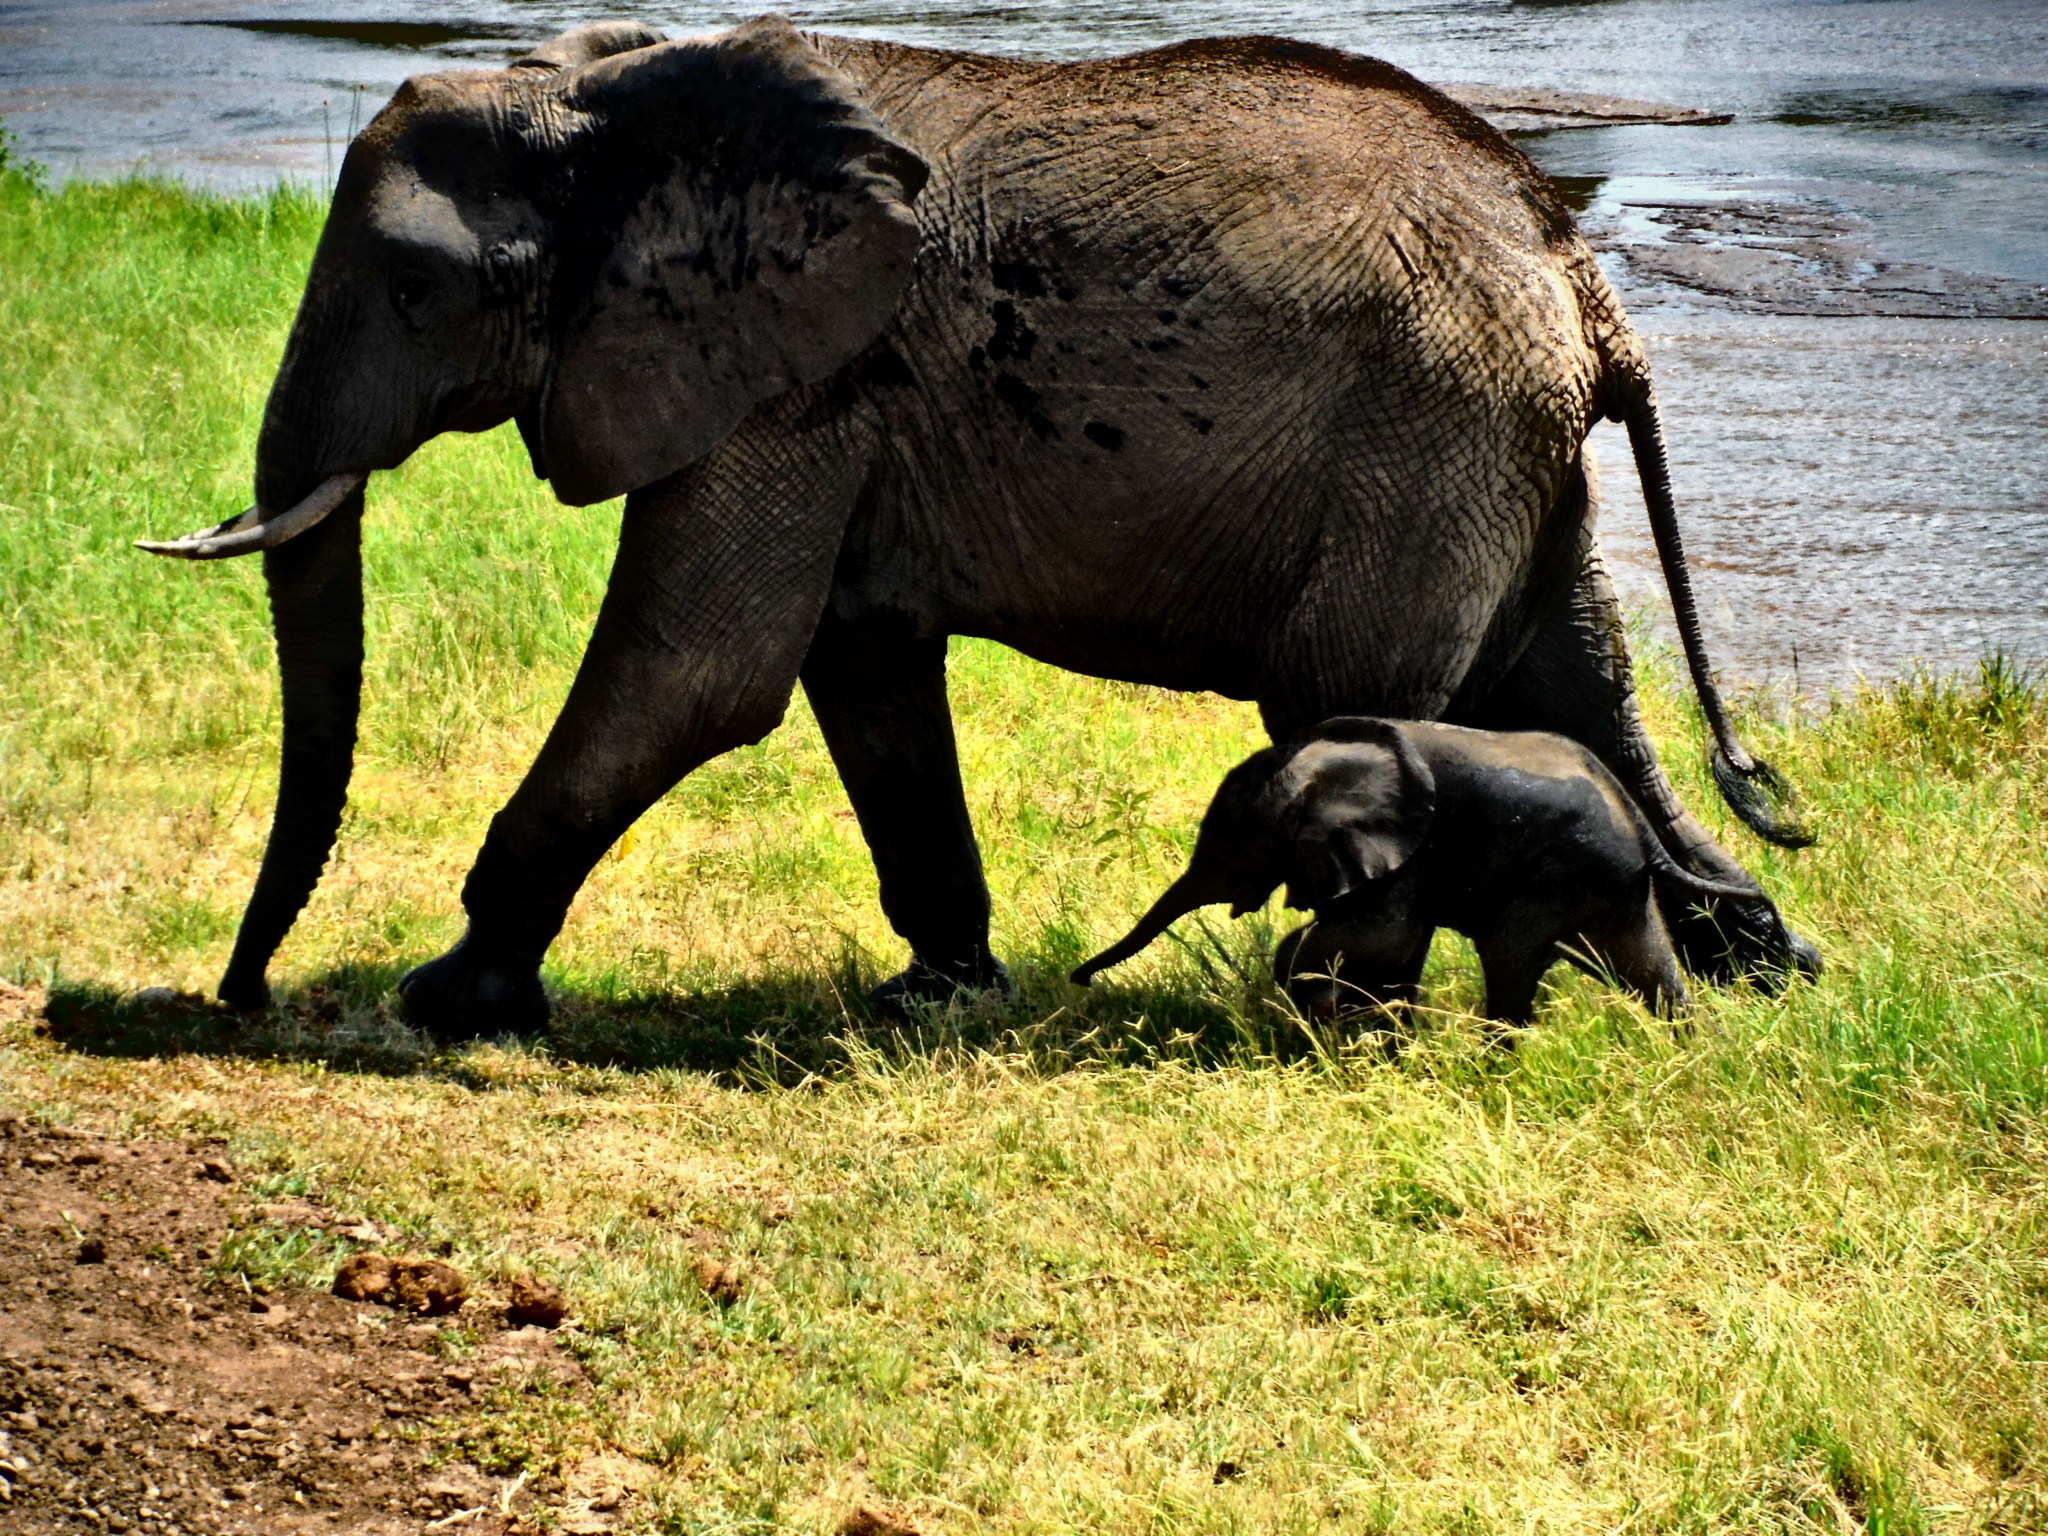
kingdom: Animalia
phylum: Chordata
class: Mammalia
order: Proboscidea
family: Elephantidae
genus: Loxodonta
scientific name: Loxodonta africana
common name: African elephant
